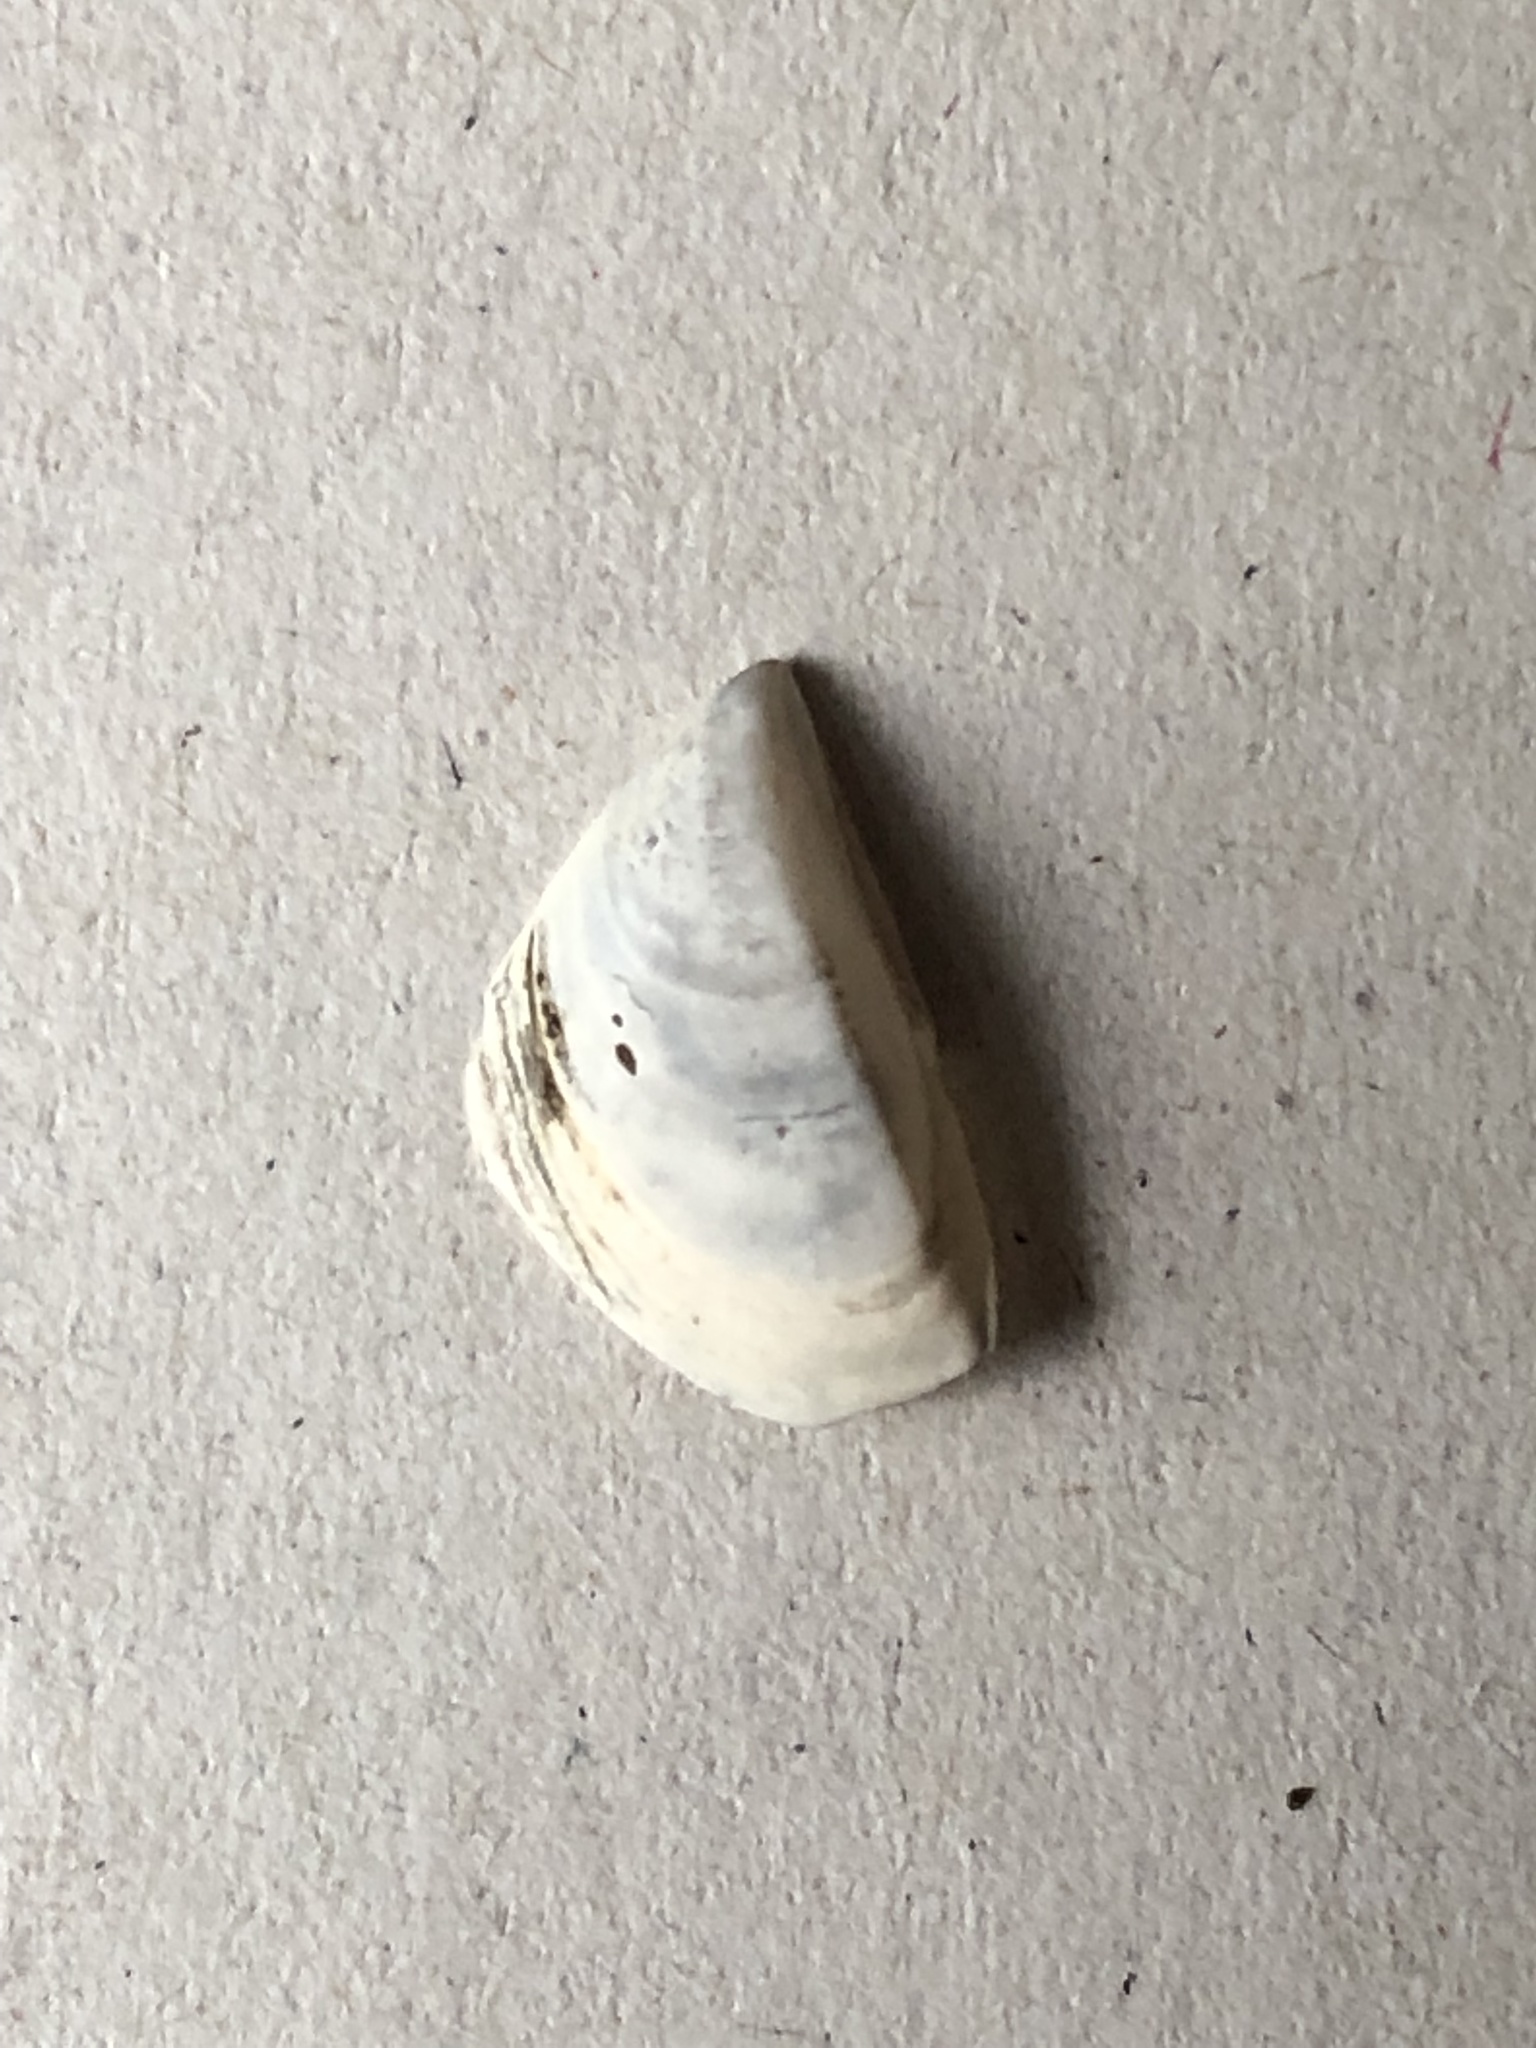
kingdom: Animalia
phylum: Mollusca
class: Bivalvia
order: Myida
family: Dreissenidae
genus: Dreissena
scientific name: Dreissena polymorpha
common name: Zebra mussel
